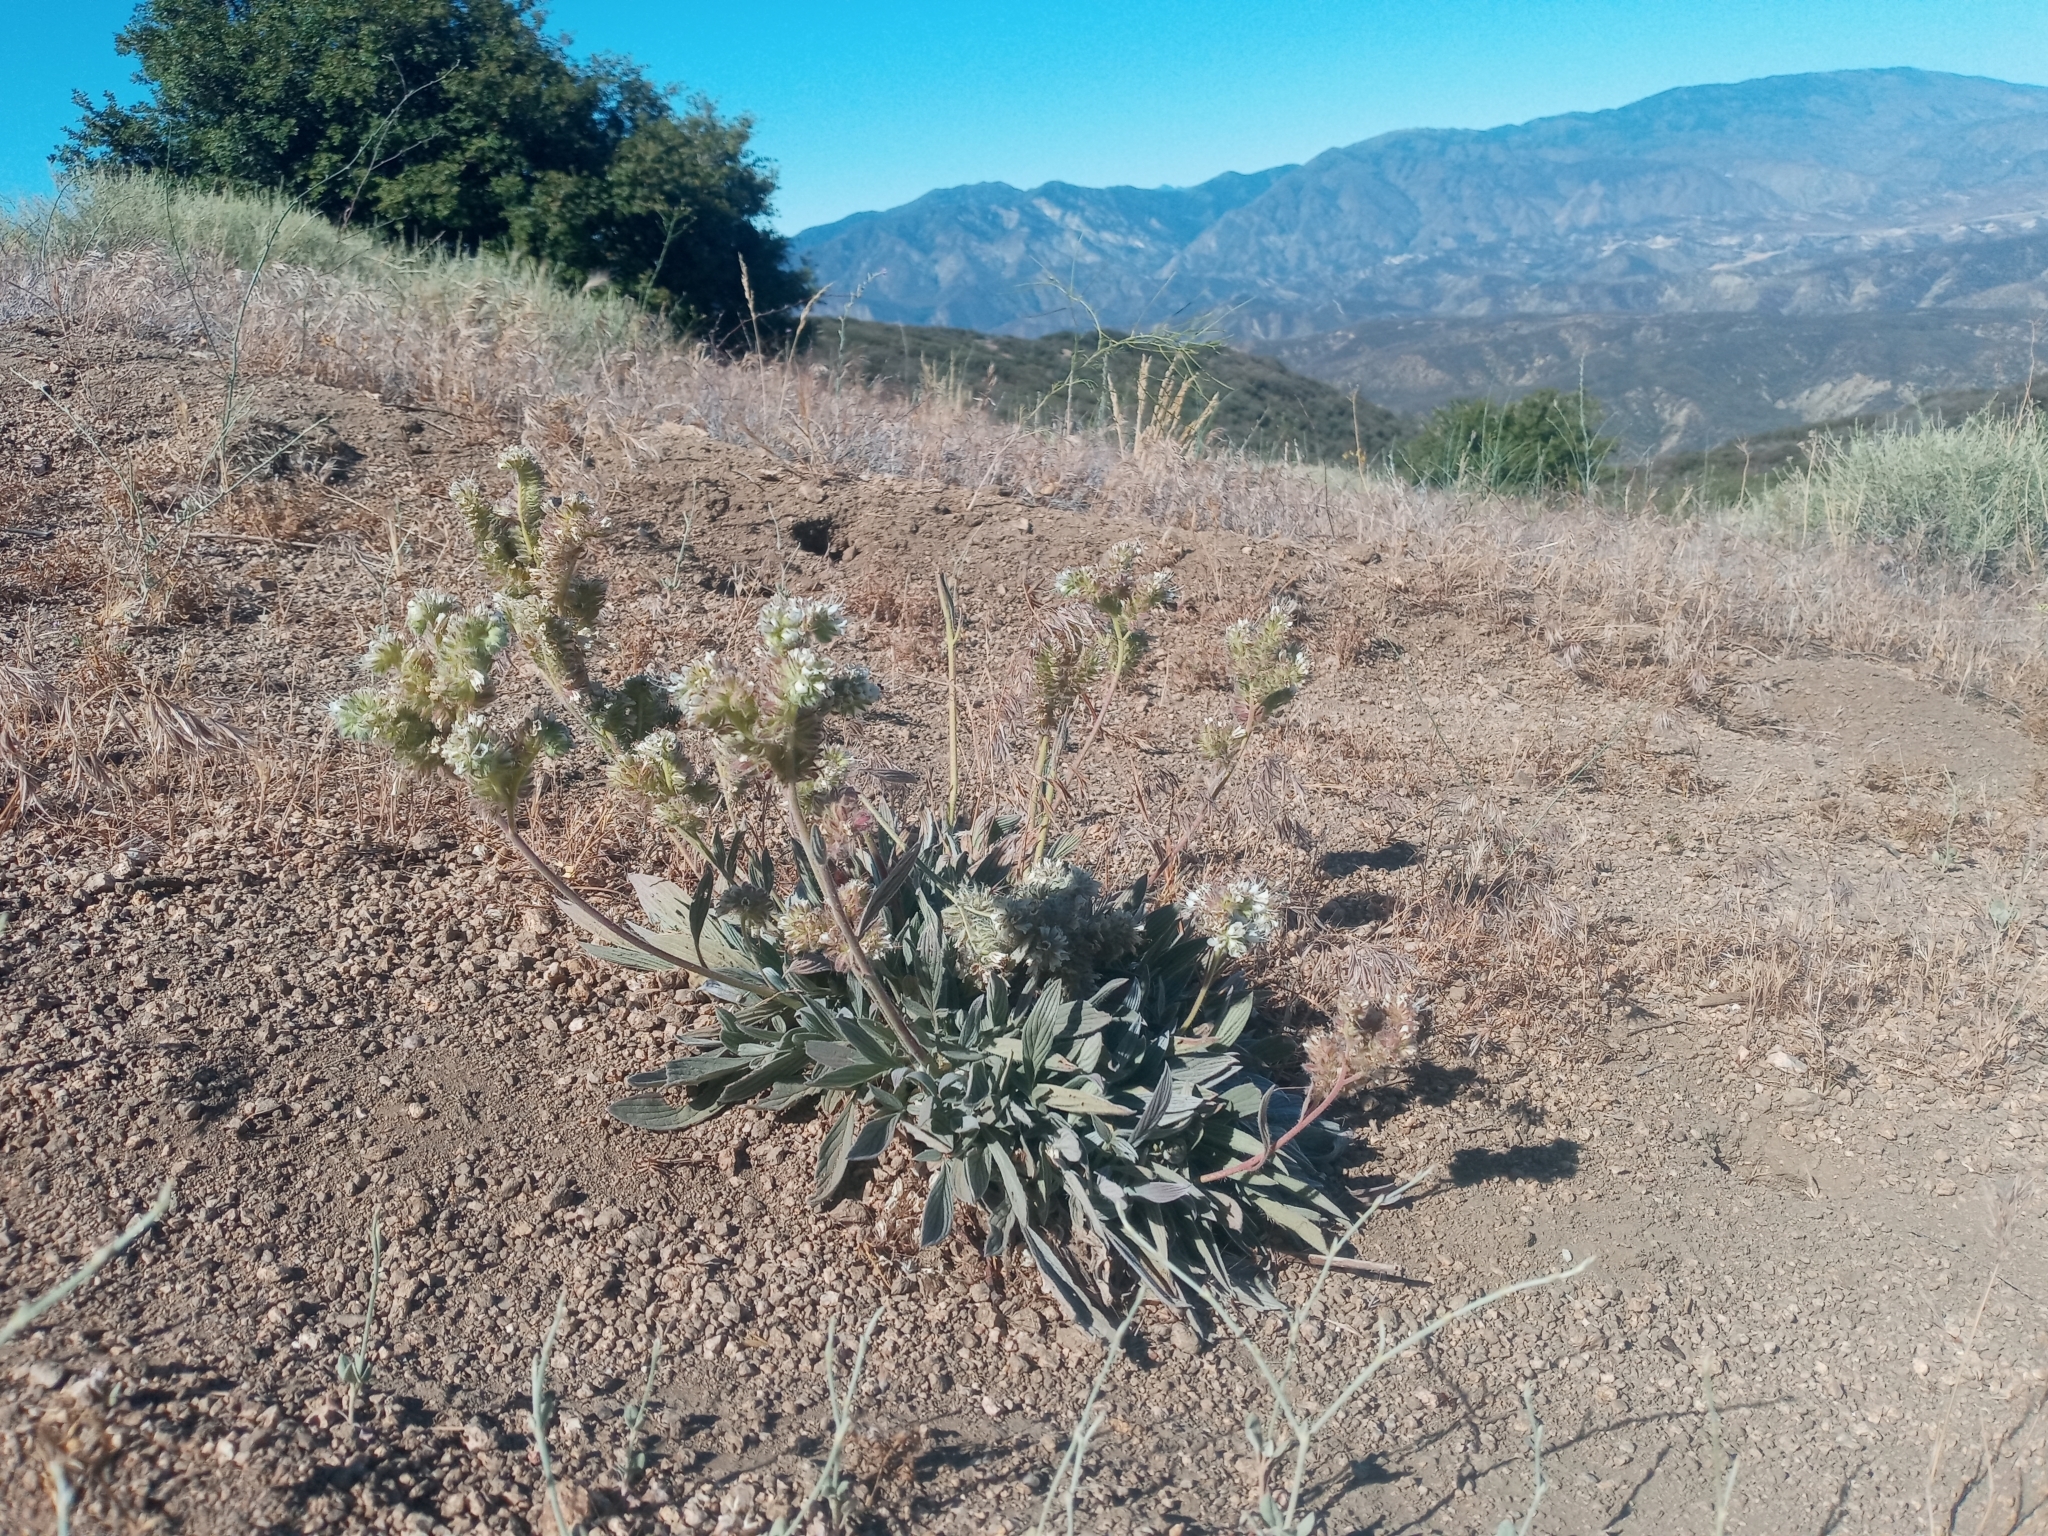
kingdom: Plantae
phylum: Tracheophyta
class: Magnoliopsida
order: Boraginales
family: Hydrophyllaceae
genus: Phacelia
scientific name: Phacelia imbricata
